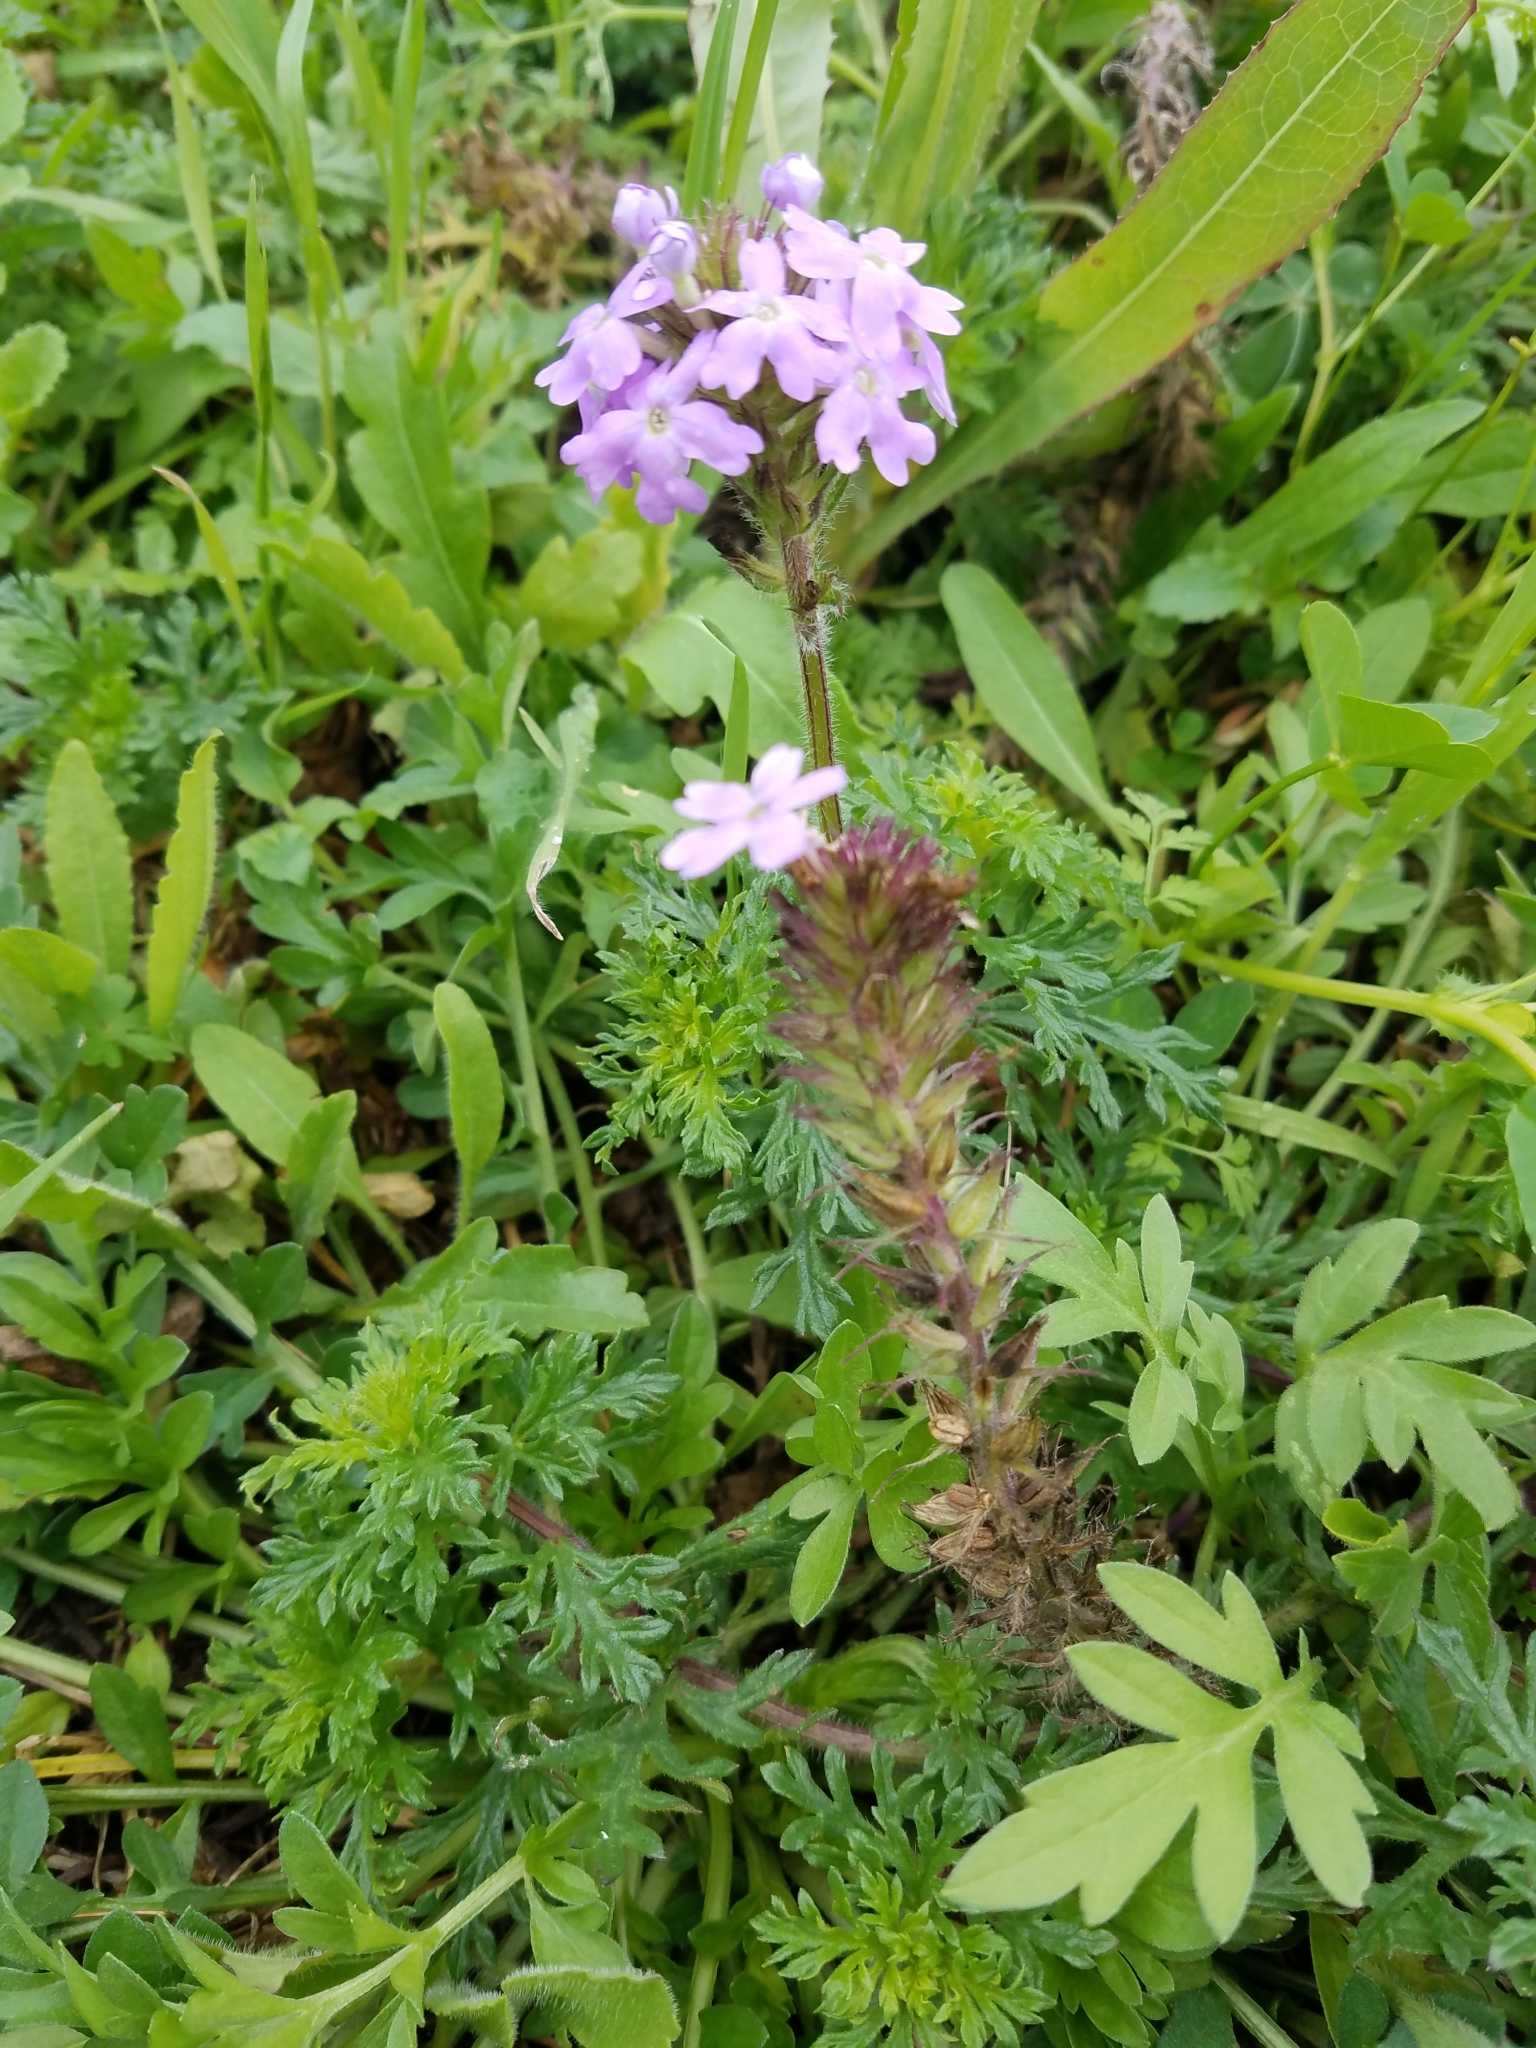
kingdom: Plantae
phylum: Tracheophyta
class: Magnoliopsida
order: Lamiales
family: Verbenaceae
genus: Verbena
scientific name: Verbena bipinnatifida
